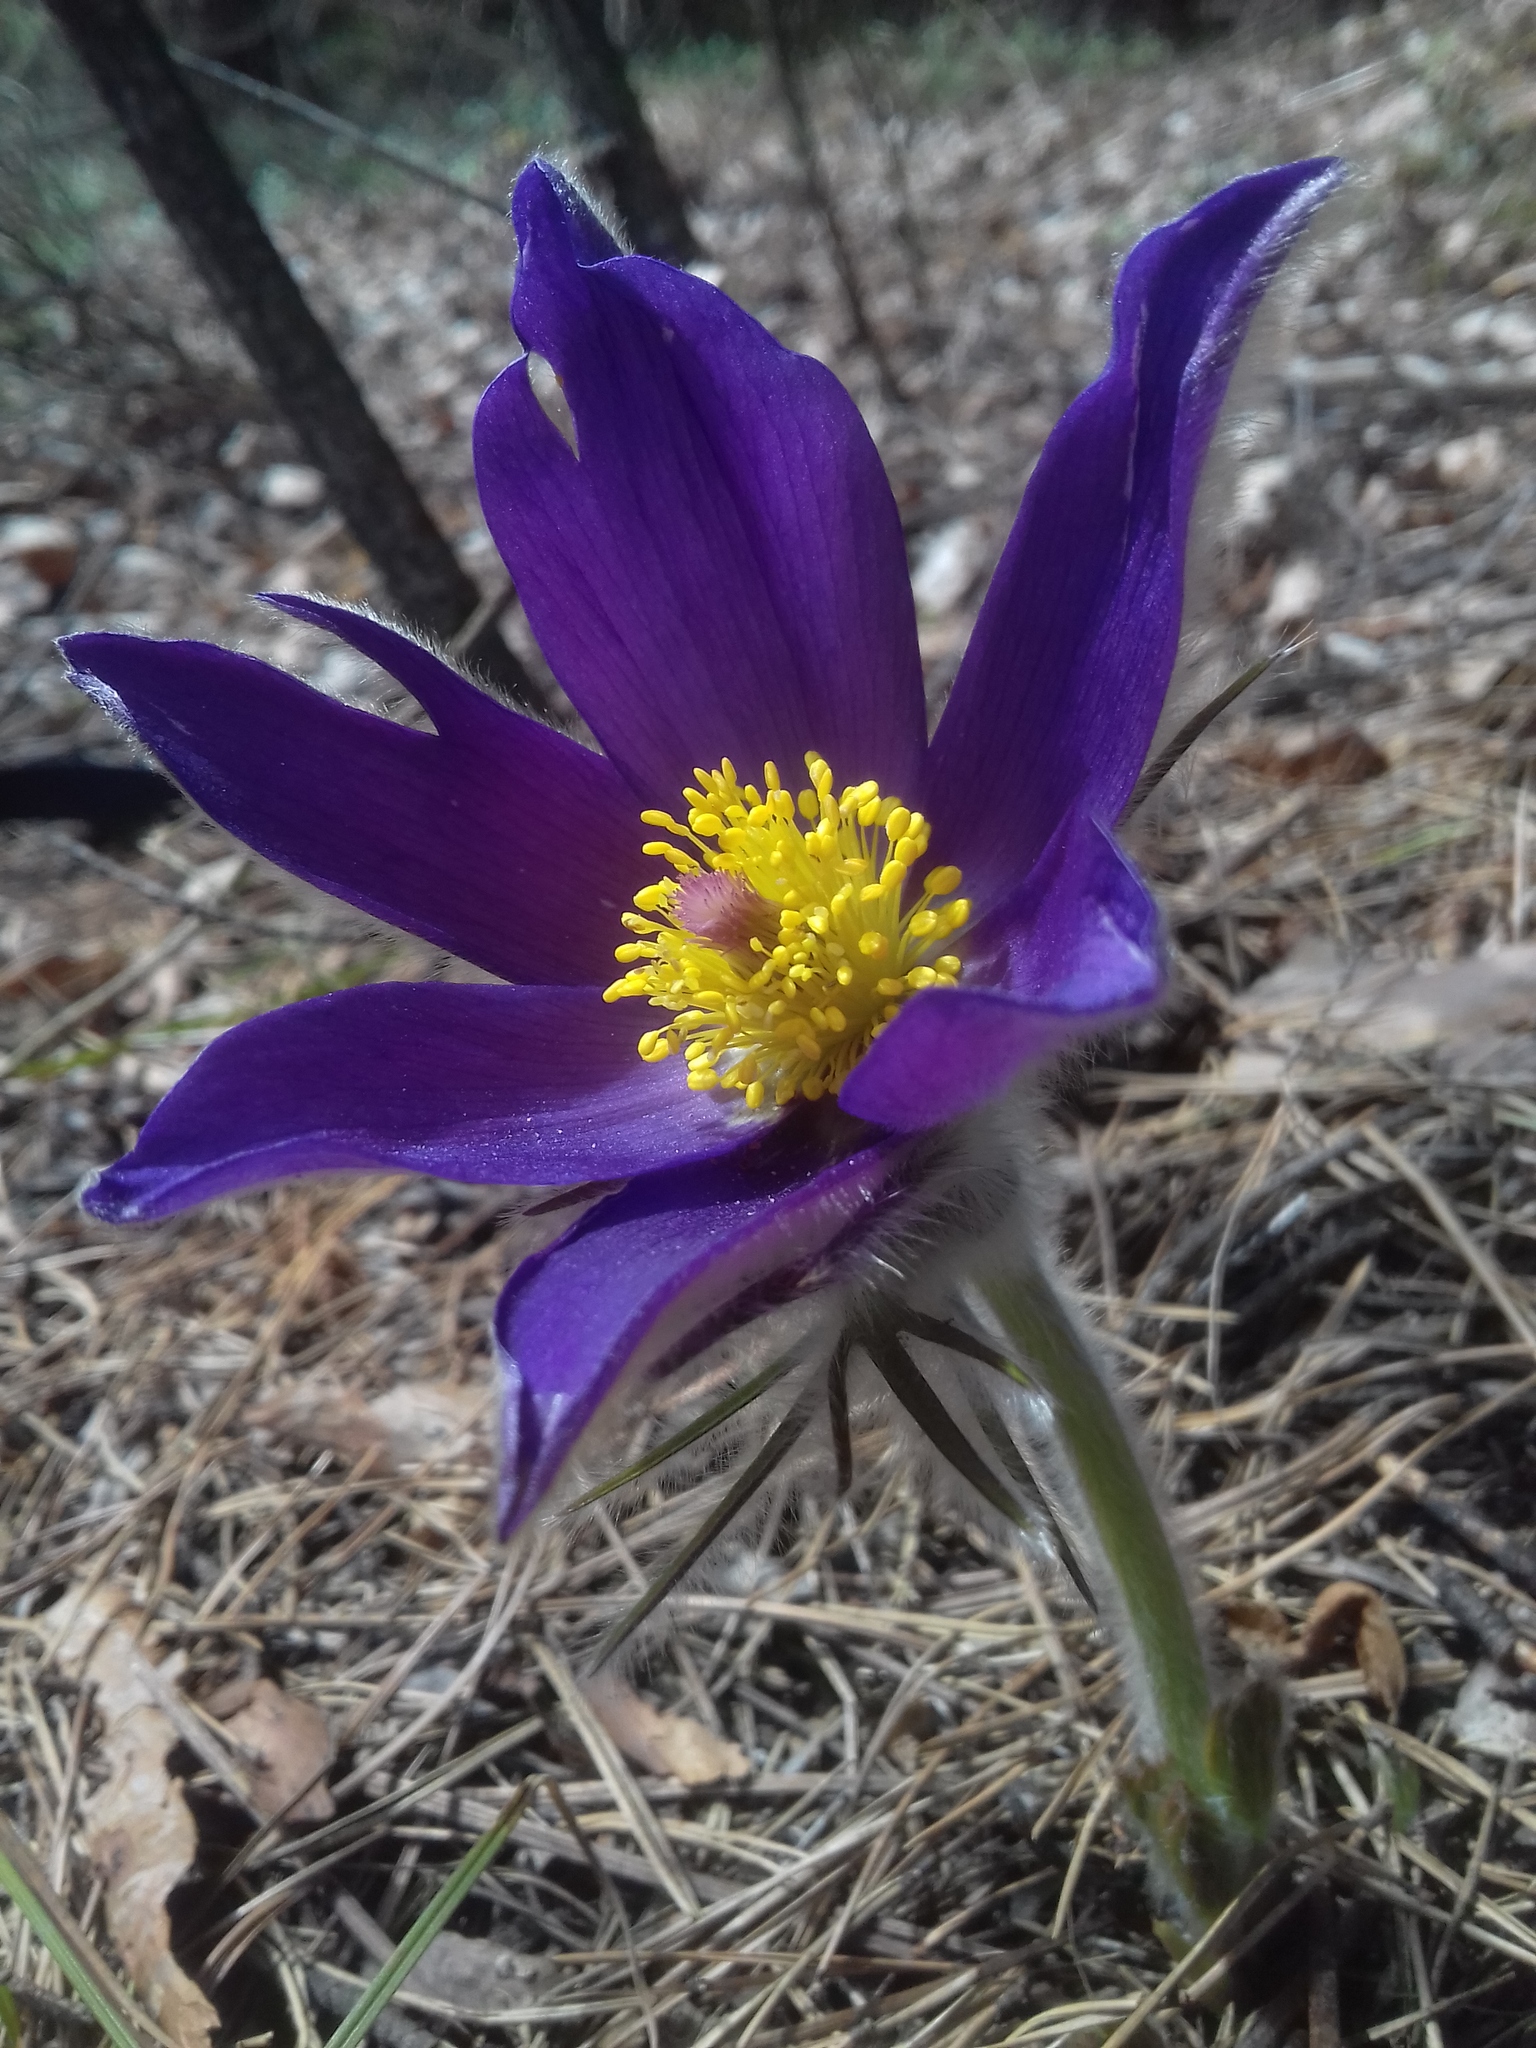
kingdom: Plantae
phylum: Tracheophyta
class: Magnoliopsida
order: Ranunculales
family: Ranunculaceae
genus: Pulsatilla
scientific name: Pulsatilla patens
